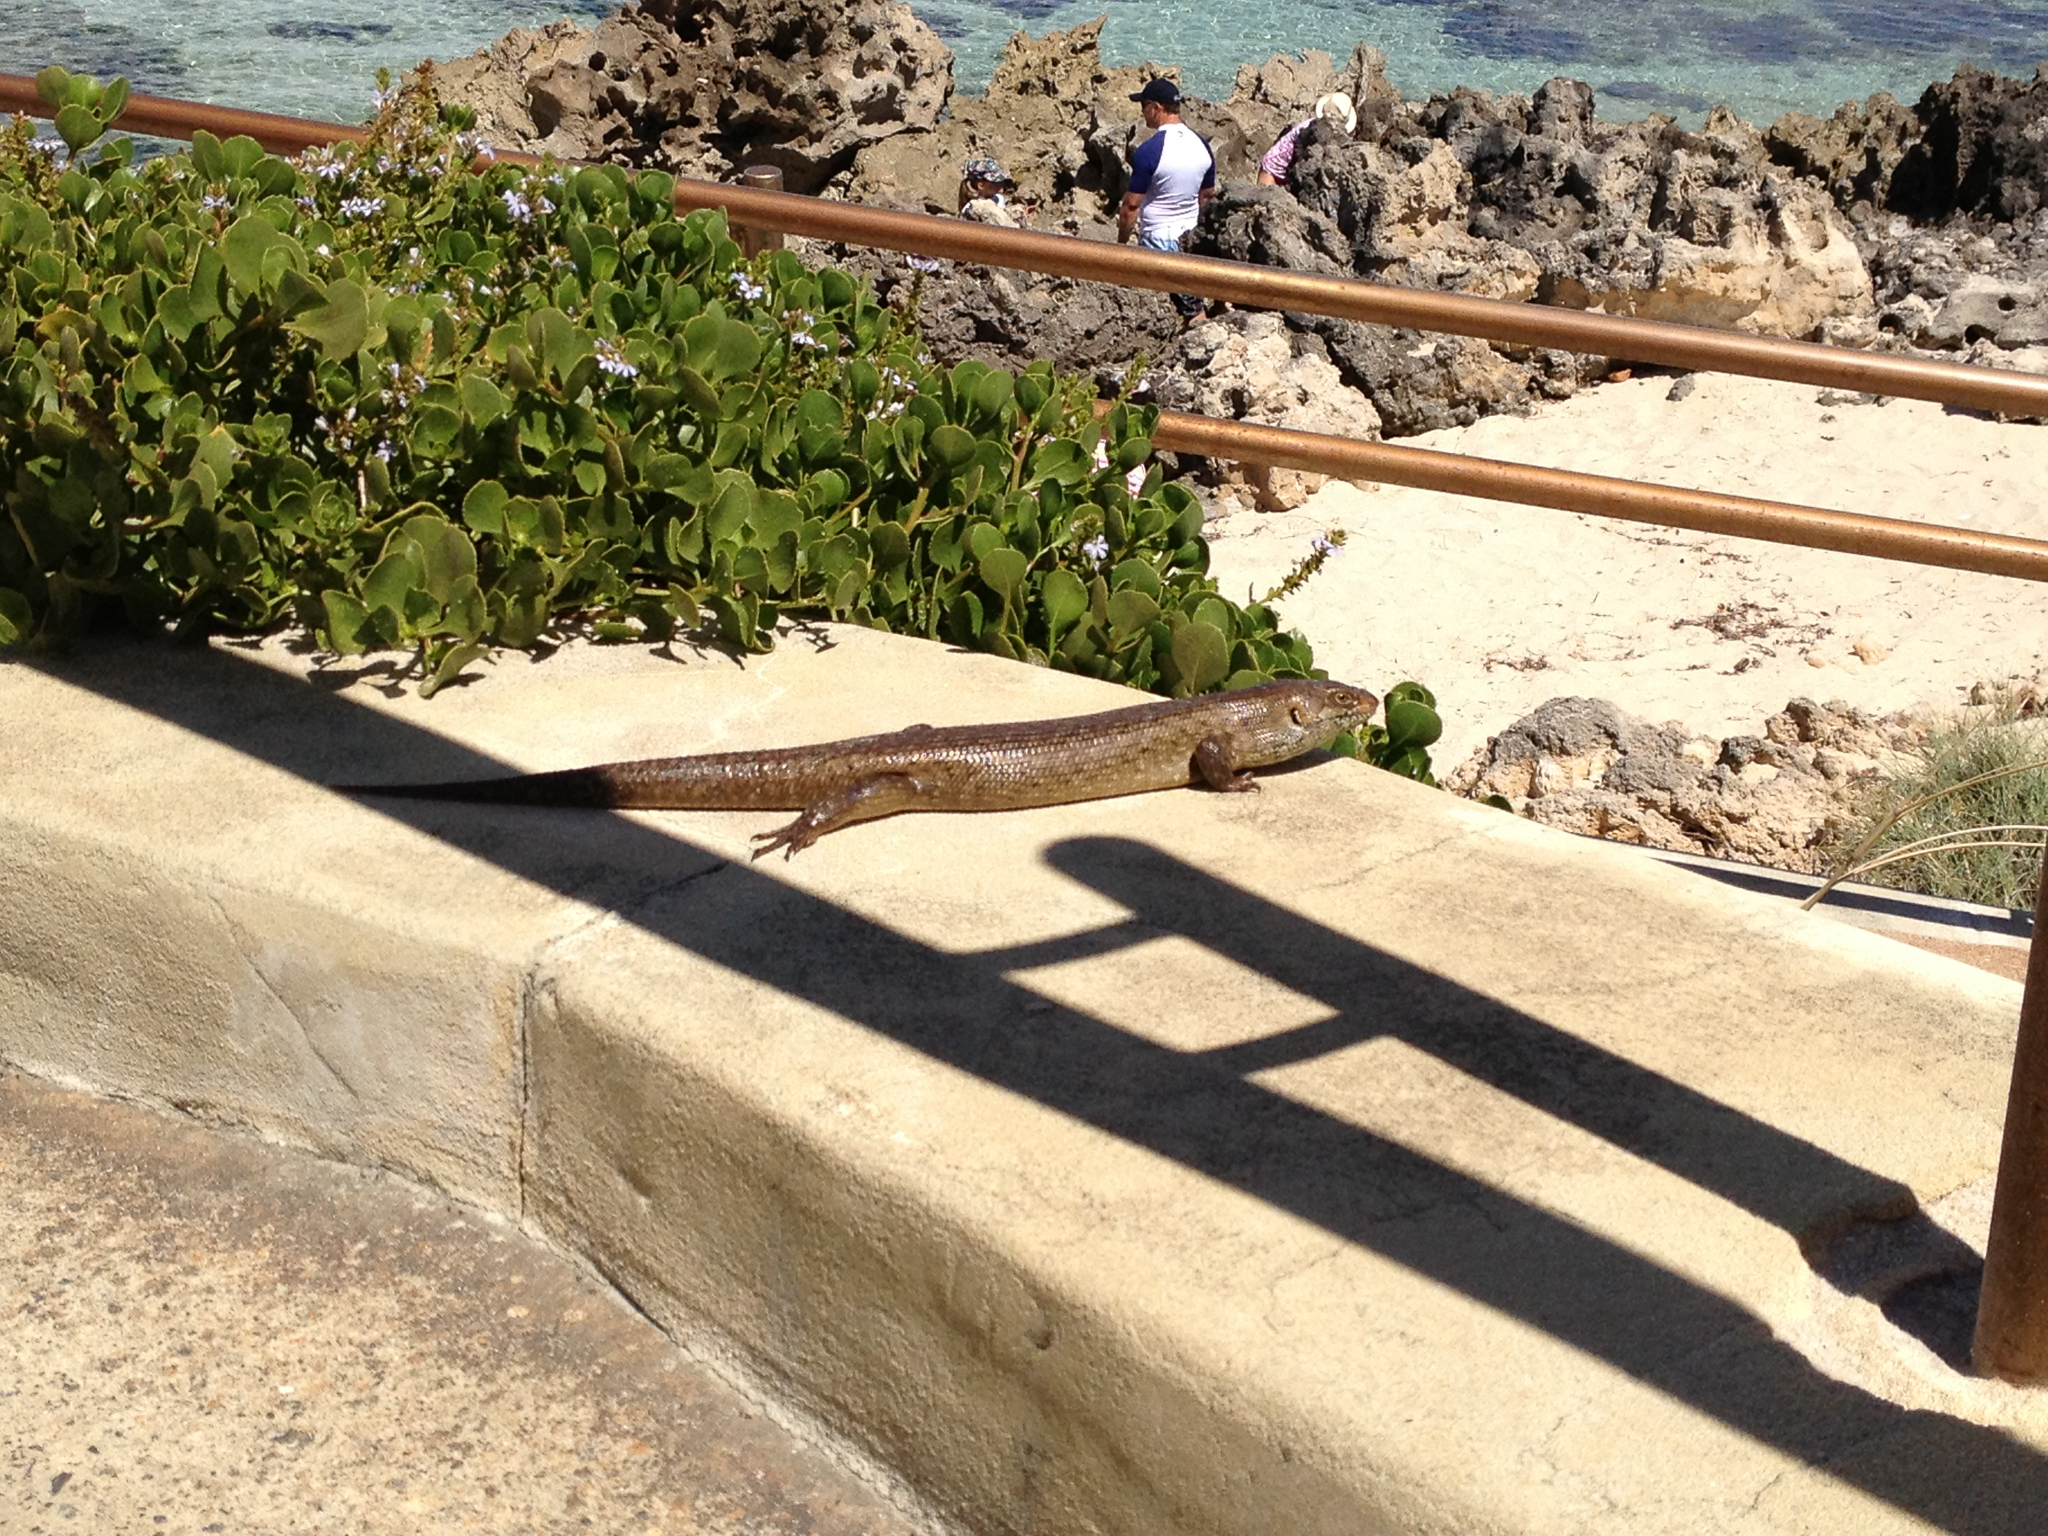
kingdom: Animalia
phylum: Chordata
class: Squamata
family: Scincidae
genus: Egernia
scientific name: Egernia kingii
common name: King's skink
